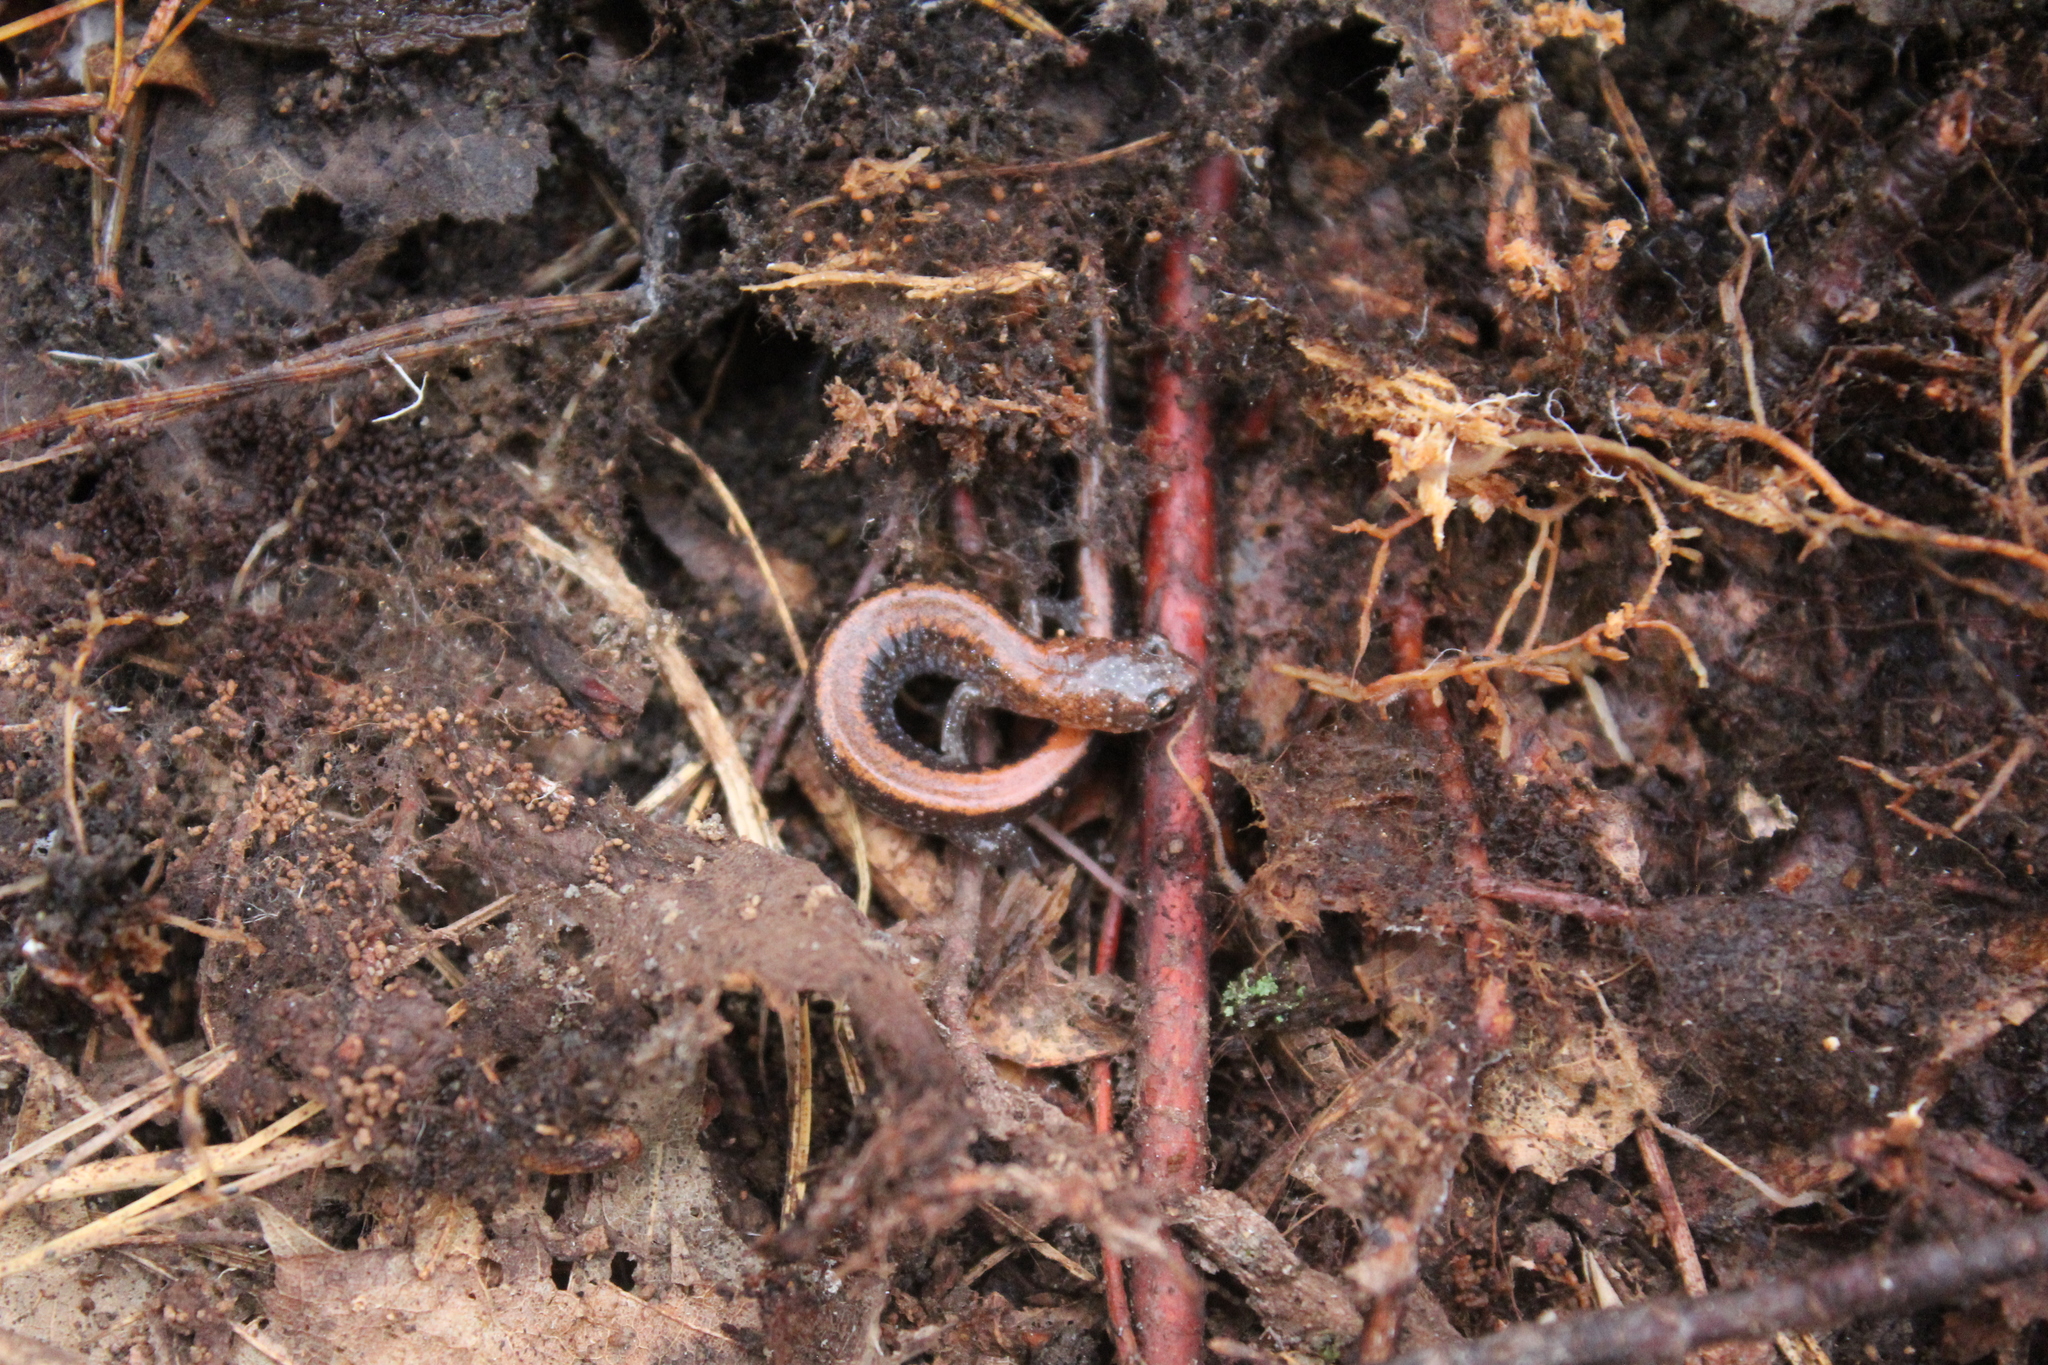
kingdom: Animalia
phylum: Chordata
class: Amphibia
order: Caudata
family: Plethodontidae
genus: Plethodon
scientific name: Plethodon cinereus
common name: Redback salamander
